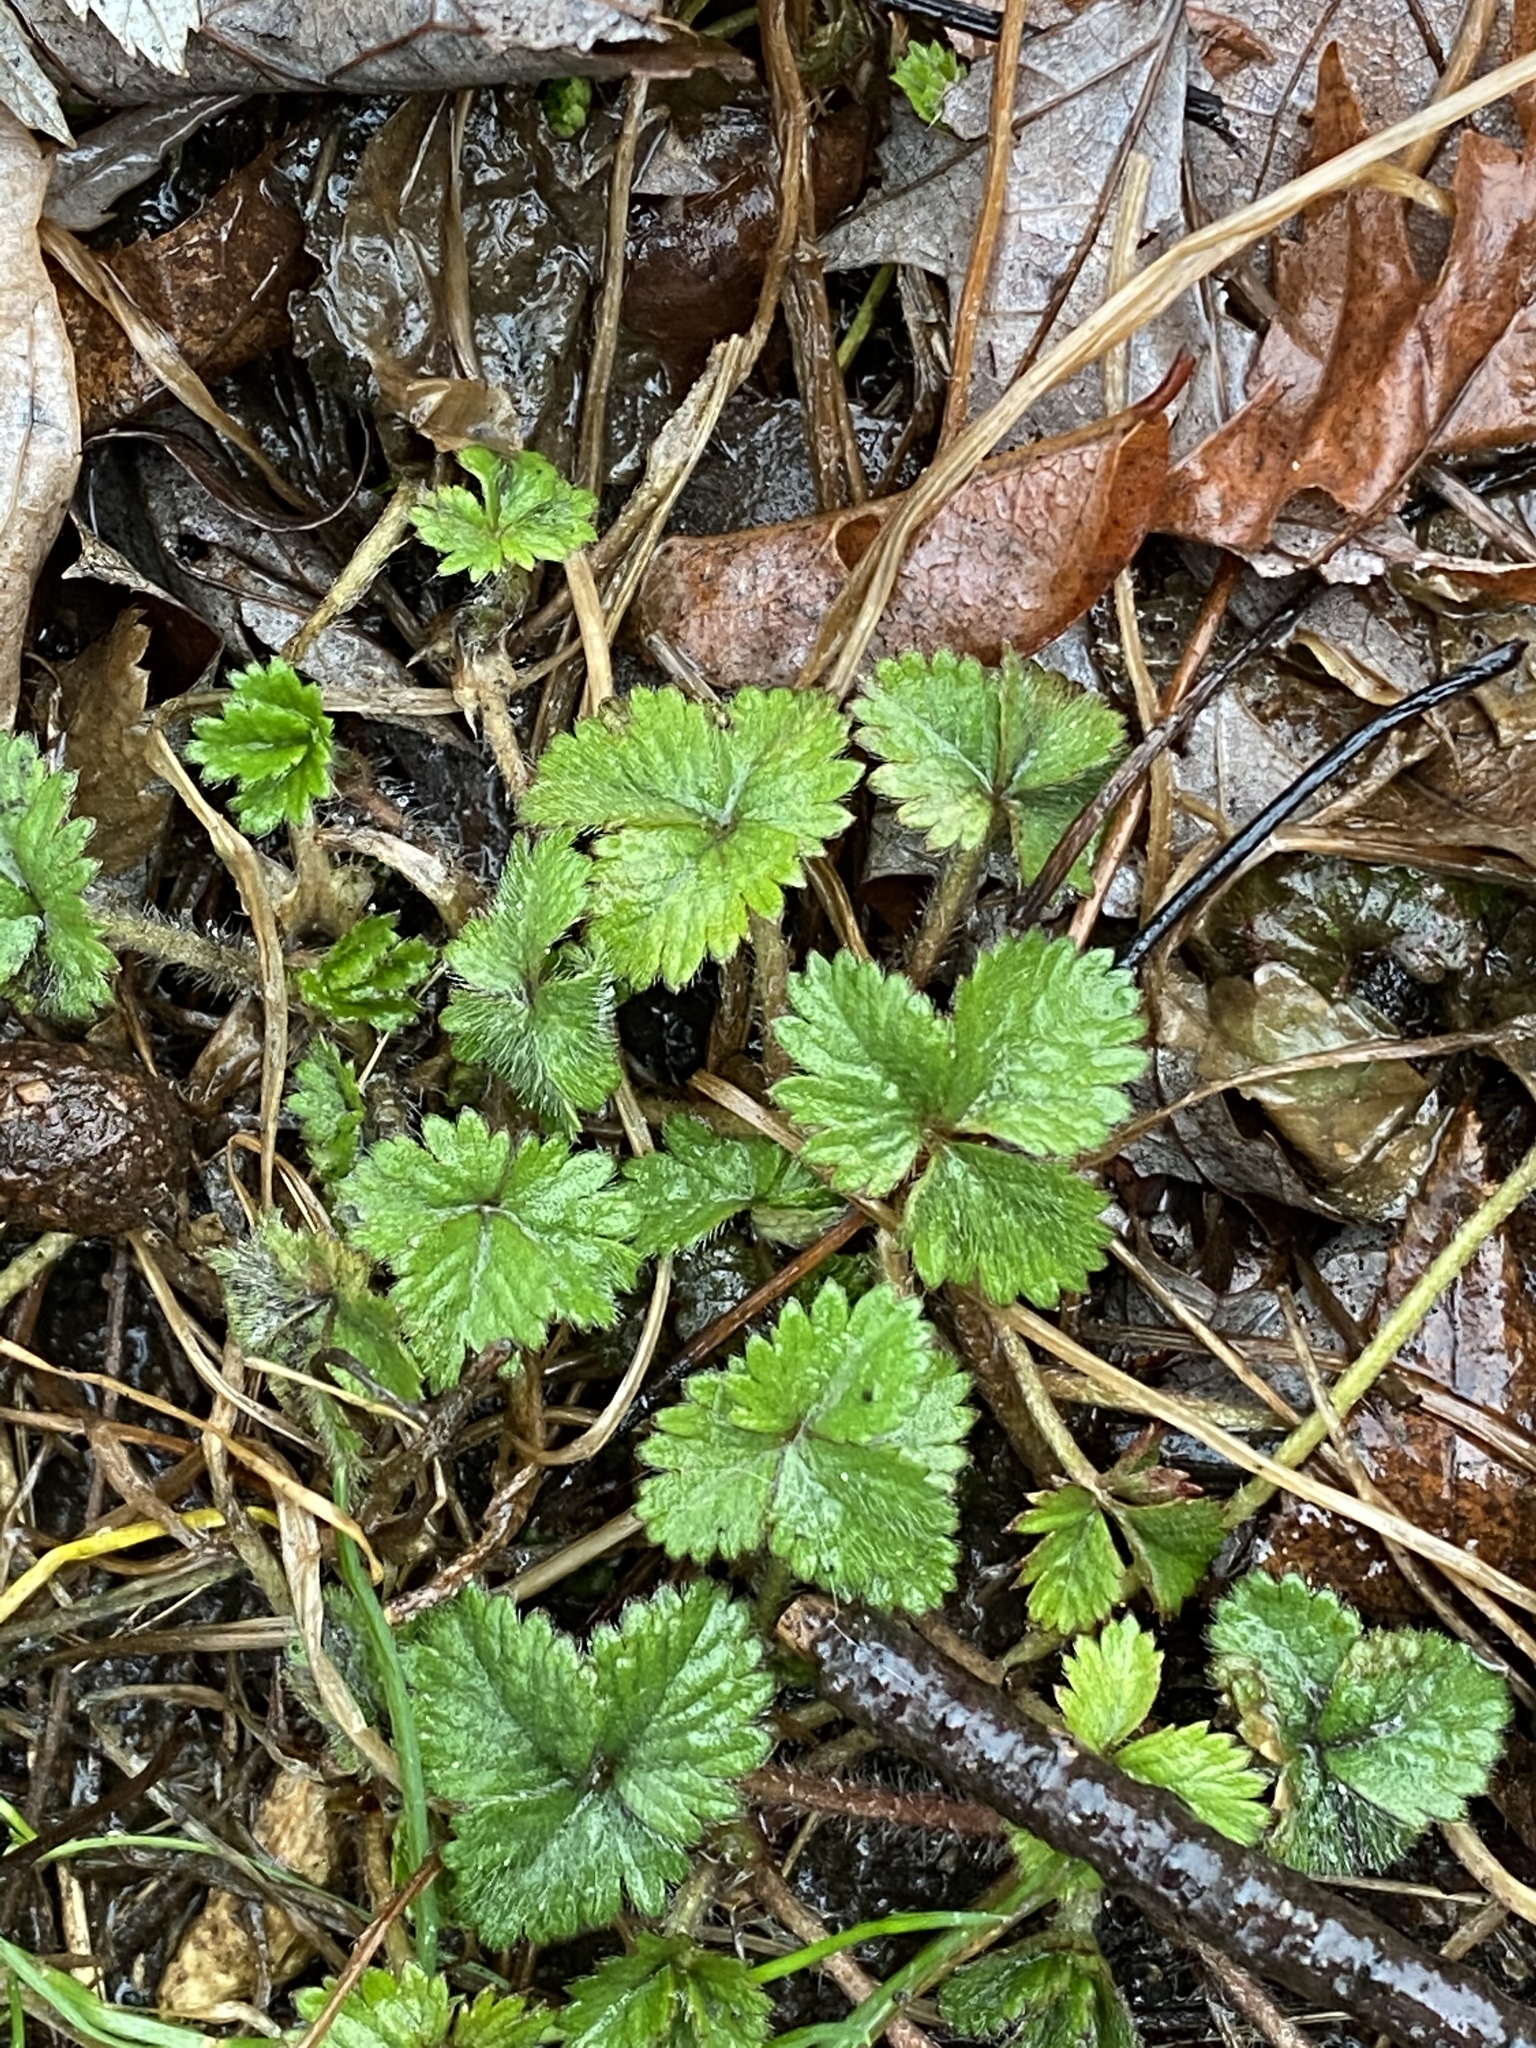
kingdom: Plantae
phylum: Tracheophyta
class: Magnoliopsida
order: Rosales
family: Rosaceae
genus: Potentilla
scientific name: Potentilla indica
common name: Yellow-flowered strawberry
